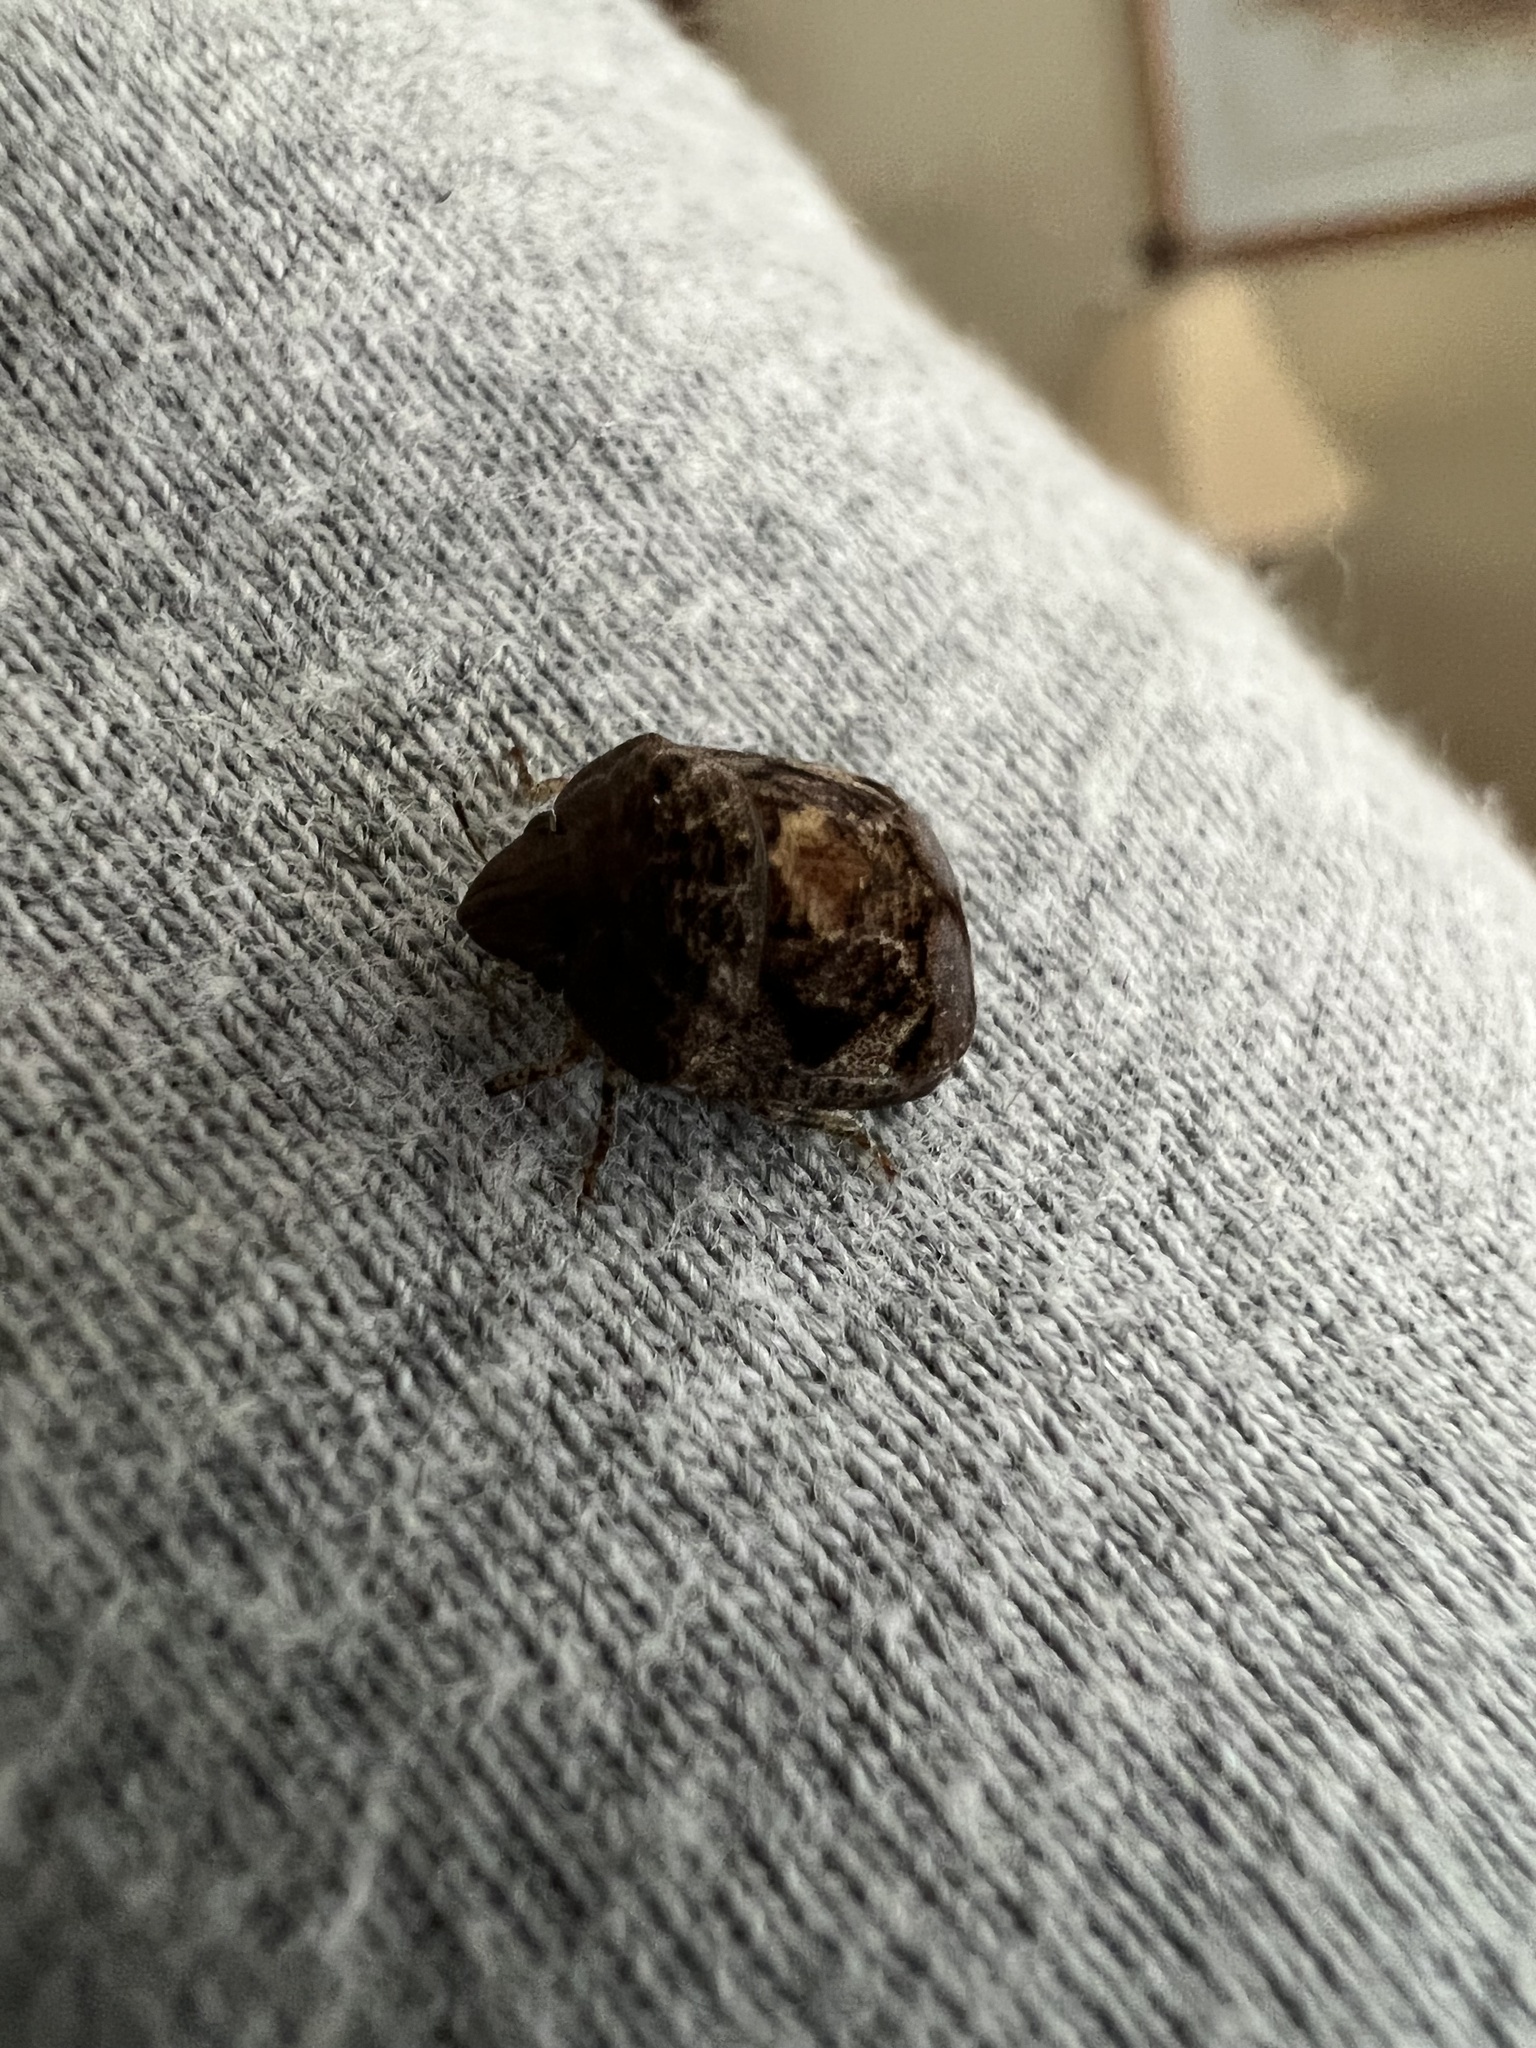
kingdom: Animalia
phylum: Arthropoda
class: Insecta
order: Hemiptera
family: Scutelleridae
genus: Stethaulax
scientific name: Stethaulax marmoratus
